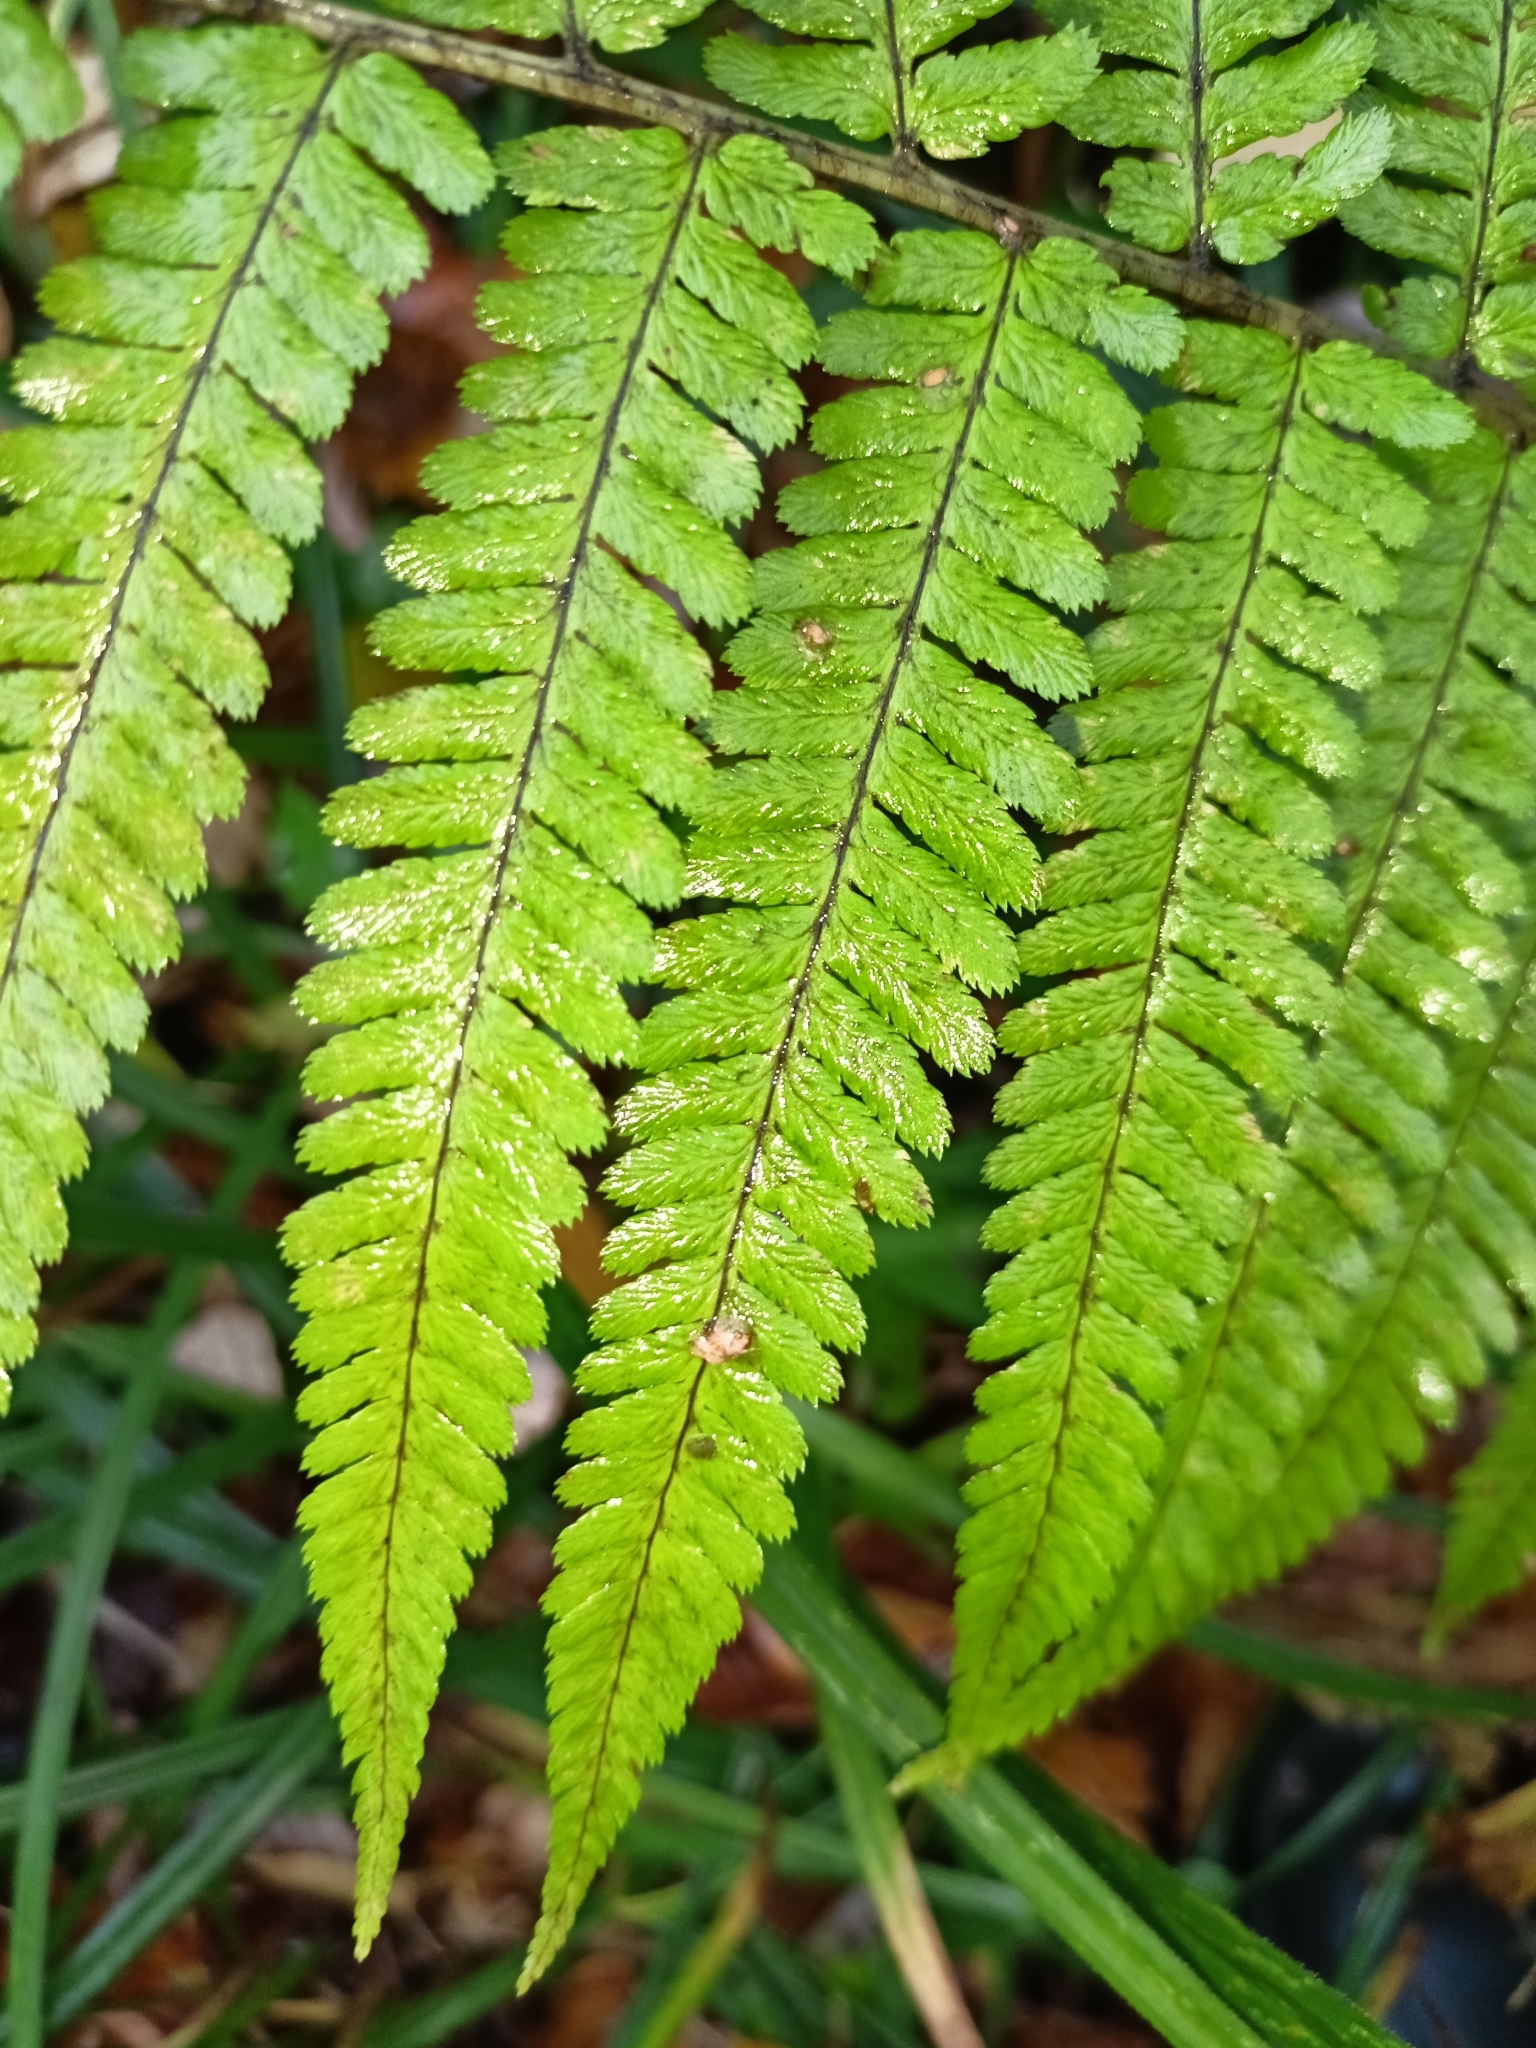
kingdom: Plantae
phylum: Tracheophyta
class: Polypodiopsida
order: Polypodiales
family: Dryopteridaceae
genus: Dryopteris
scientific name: Dryopteris filix-mas
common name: Male fern
